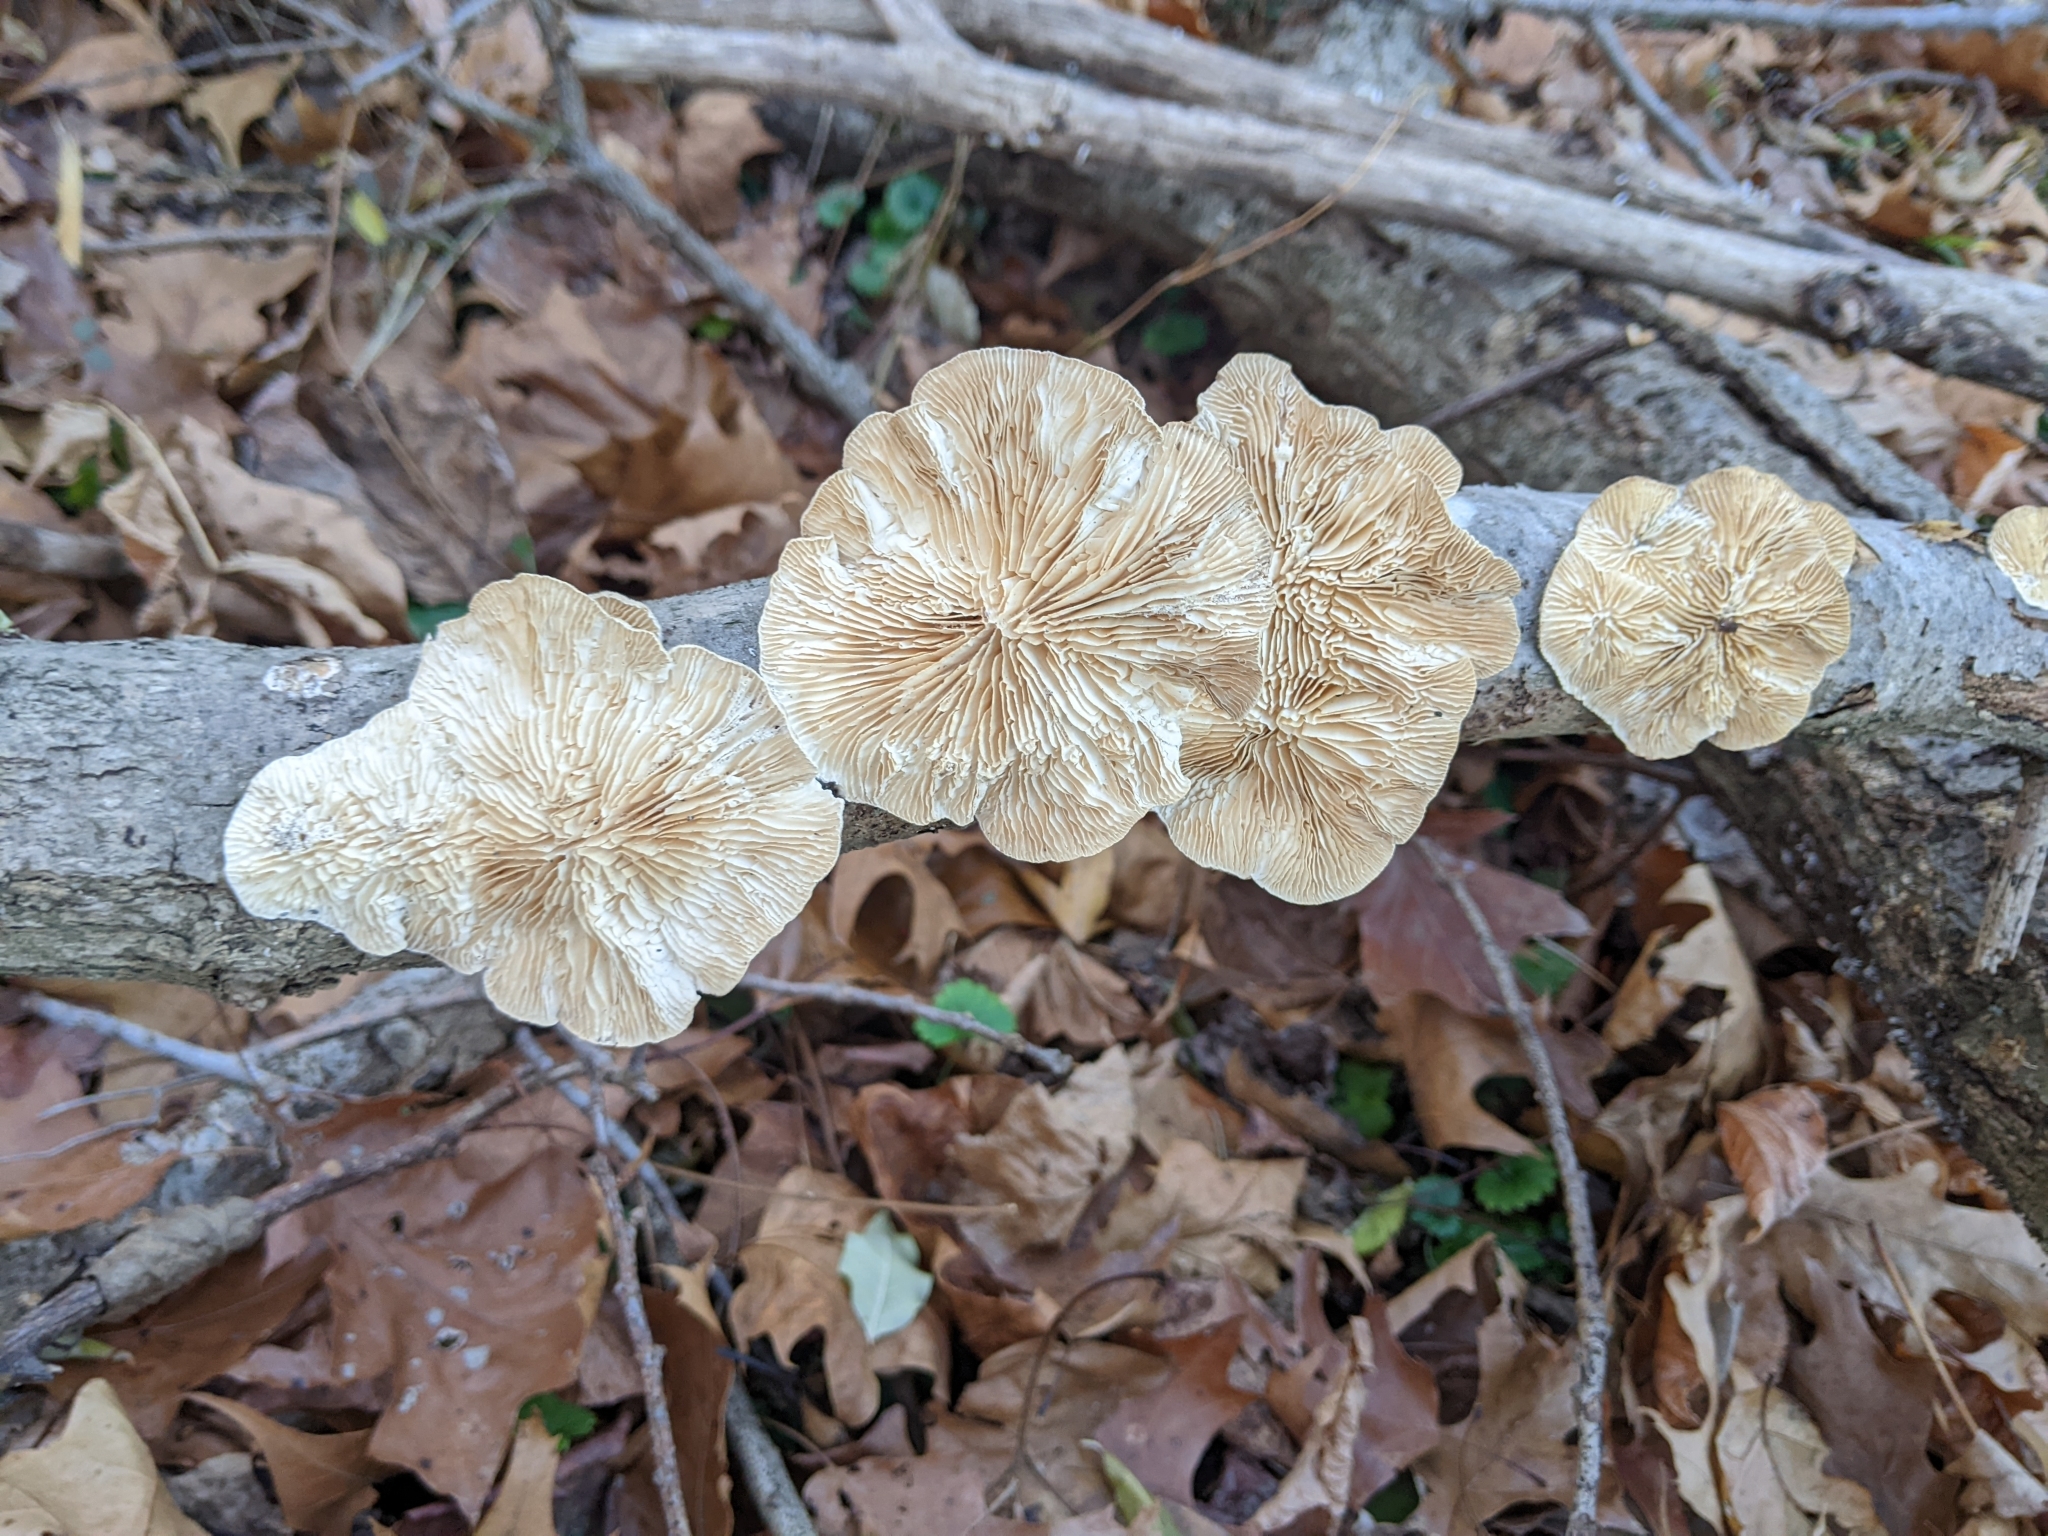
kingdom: Fungi
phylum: Basidiomycota
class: Agaricomycetes
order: Polyporales
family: Polyporaceae
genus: Lenzites
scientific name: Lenzites betulinus
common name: Birch mazegill
